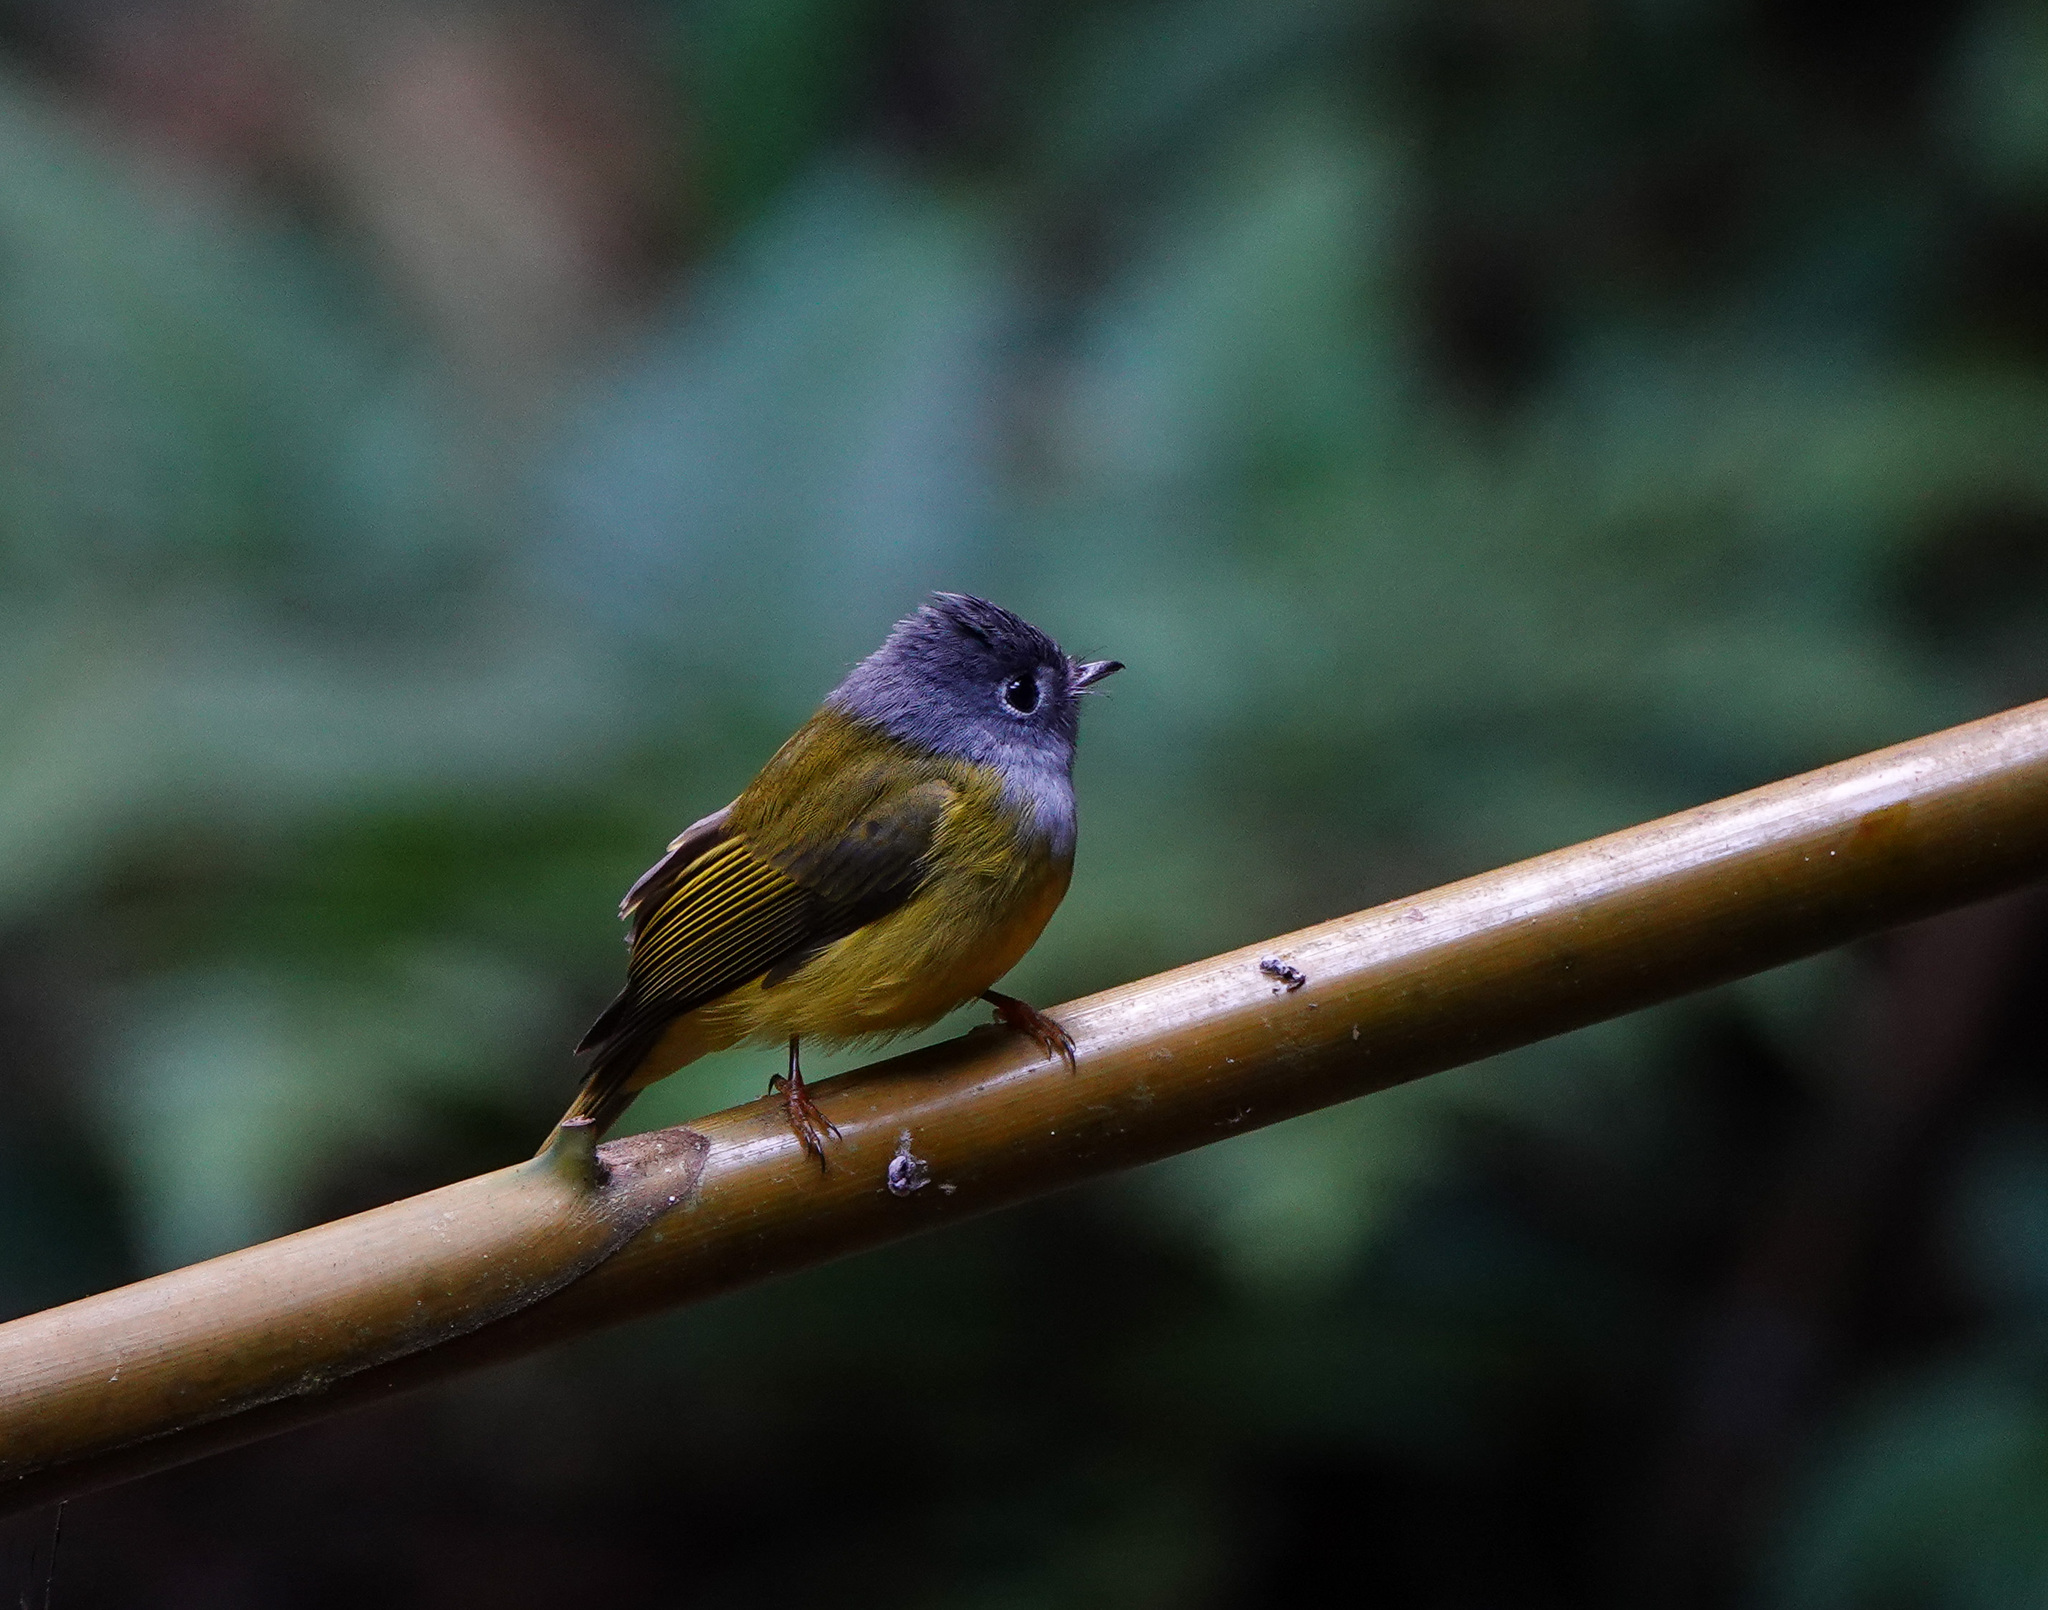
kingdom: Animalia
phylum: Chordata
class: Aves
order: Passeriformes
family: Stenostiridae
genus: Culicicapa
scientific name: Culicicapa ceylonensis
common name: Grey-headed canary-flycatcher
